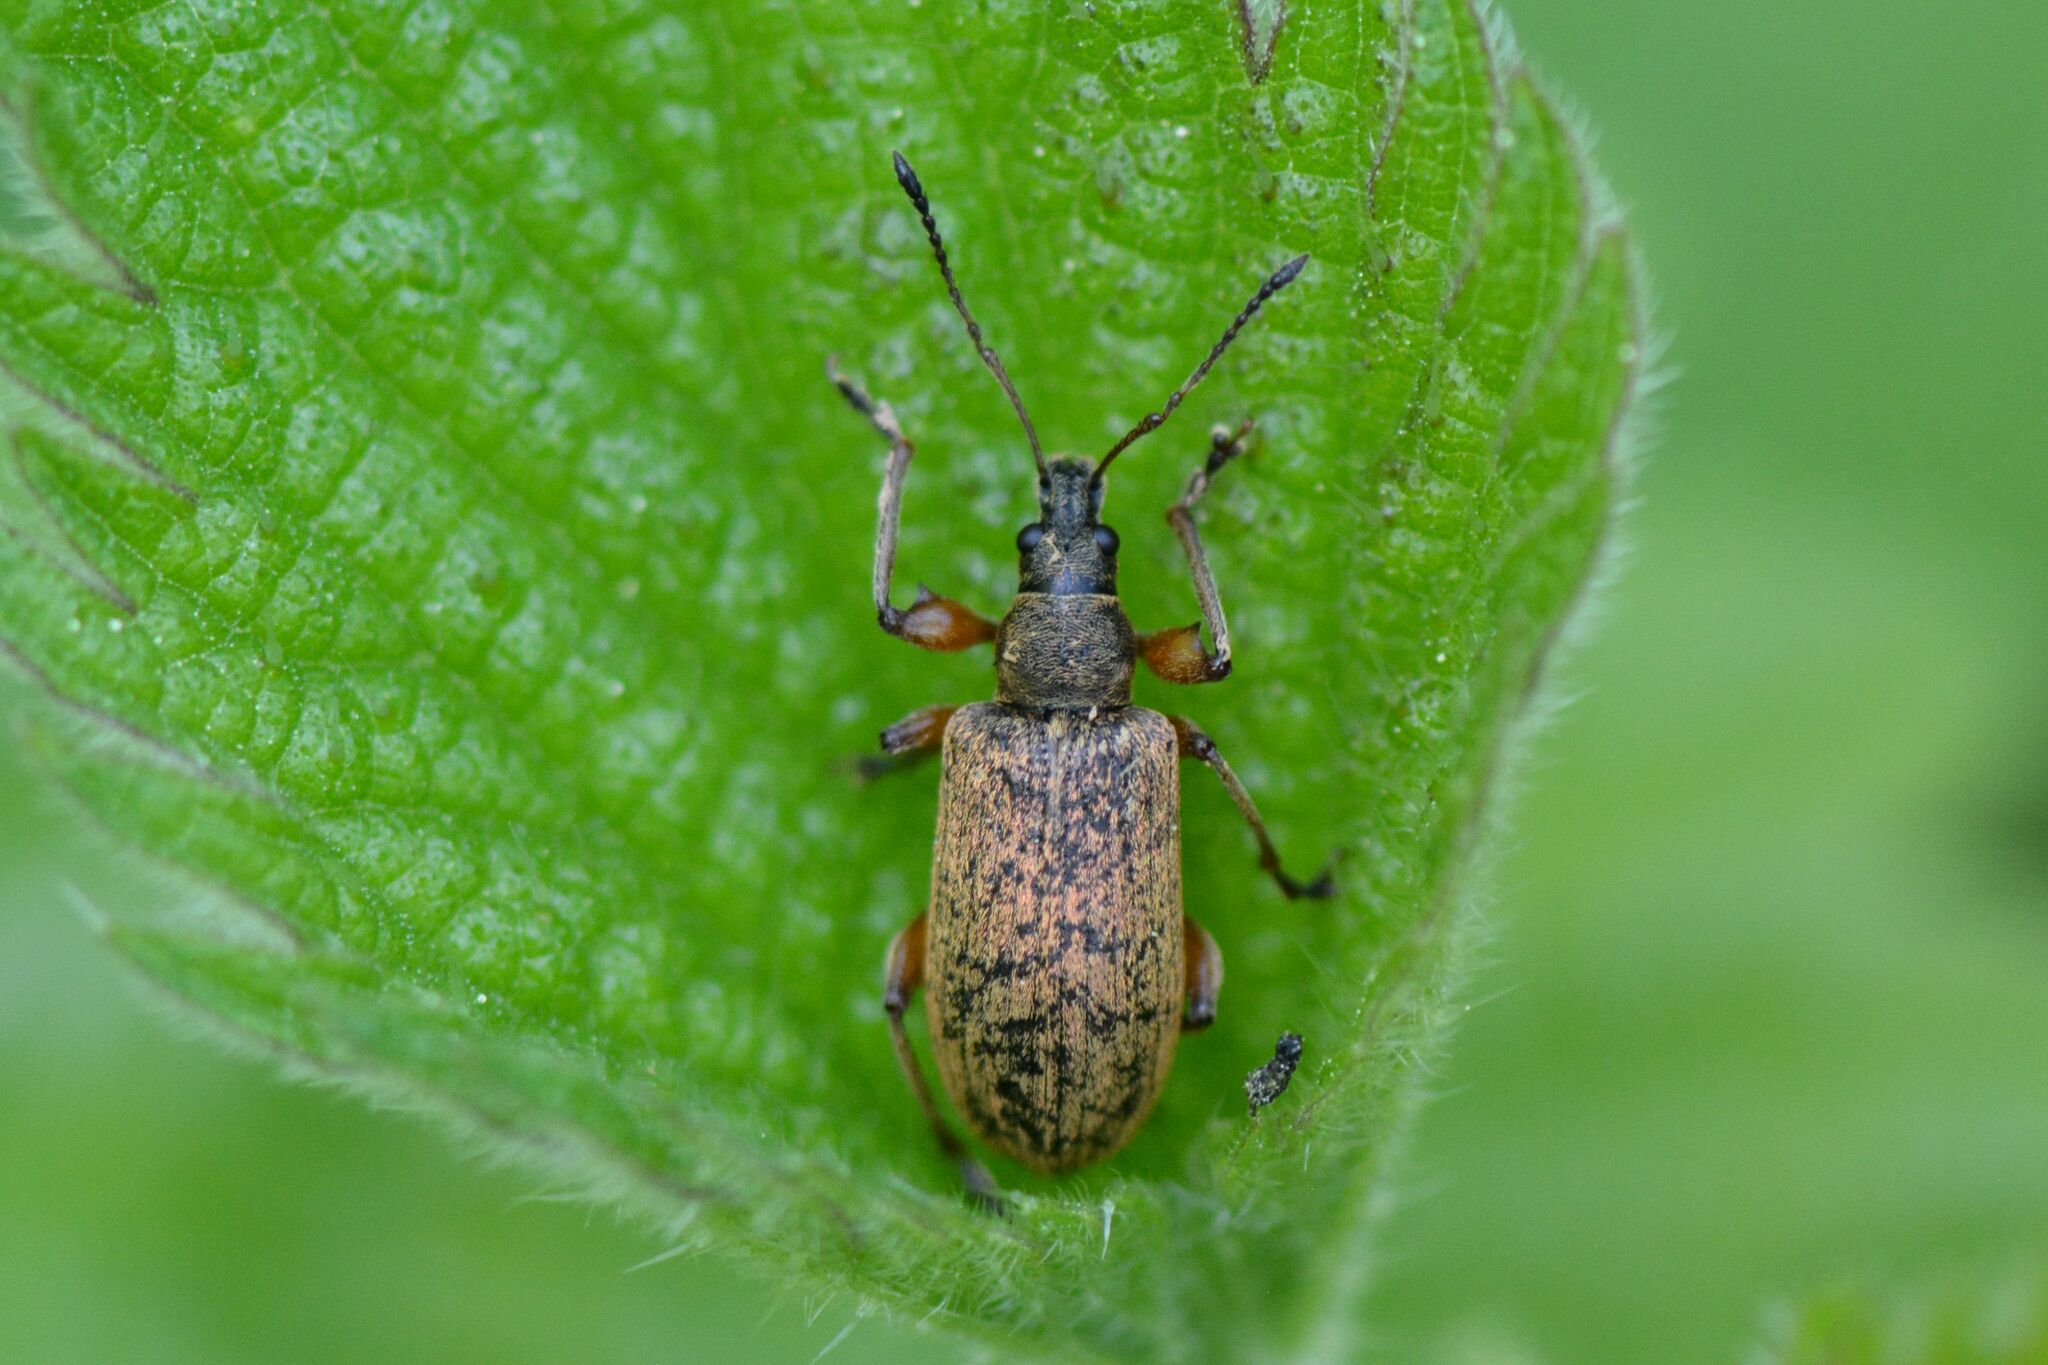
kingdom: Animalia
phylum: Arthropoda
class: Insecta
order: Coleoptera
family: Curculionidae
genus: Phyllobius
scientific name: Phyllobius glaucus
